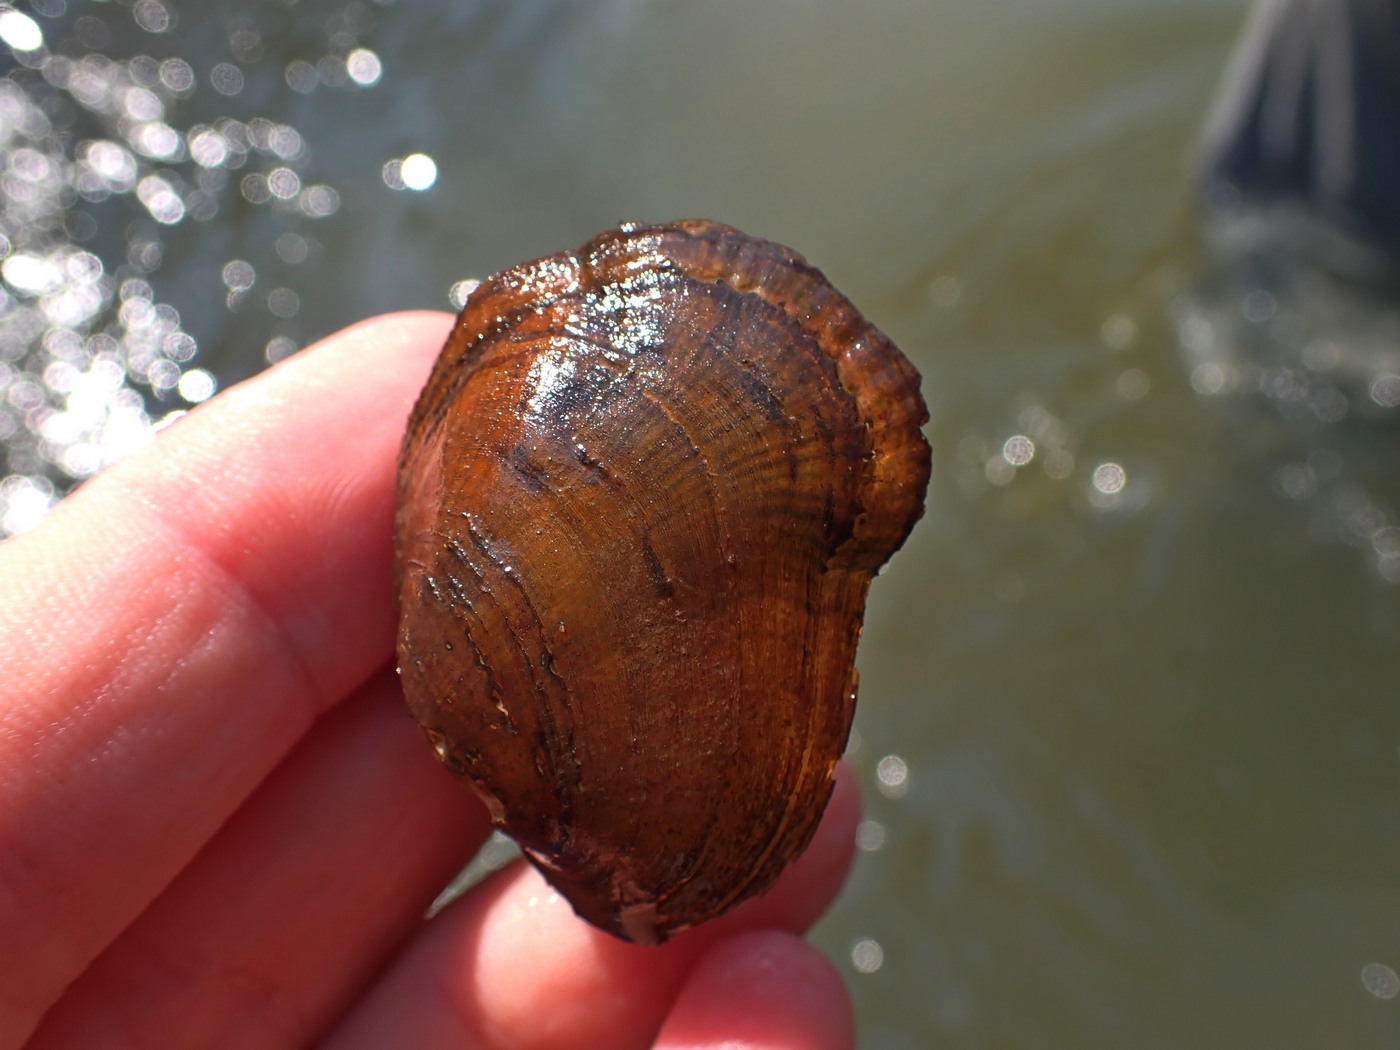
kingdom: Animalia
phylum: Mollusca
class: Bivalvia
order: Unionida
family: Unionidae
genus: Epioblasma
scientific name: Epioblasma walkeri
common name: Tan riffleshell
